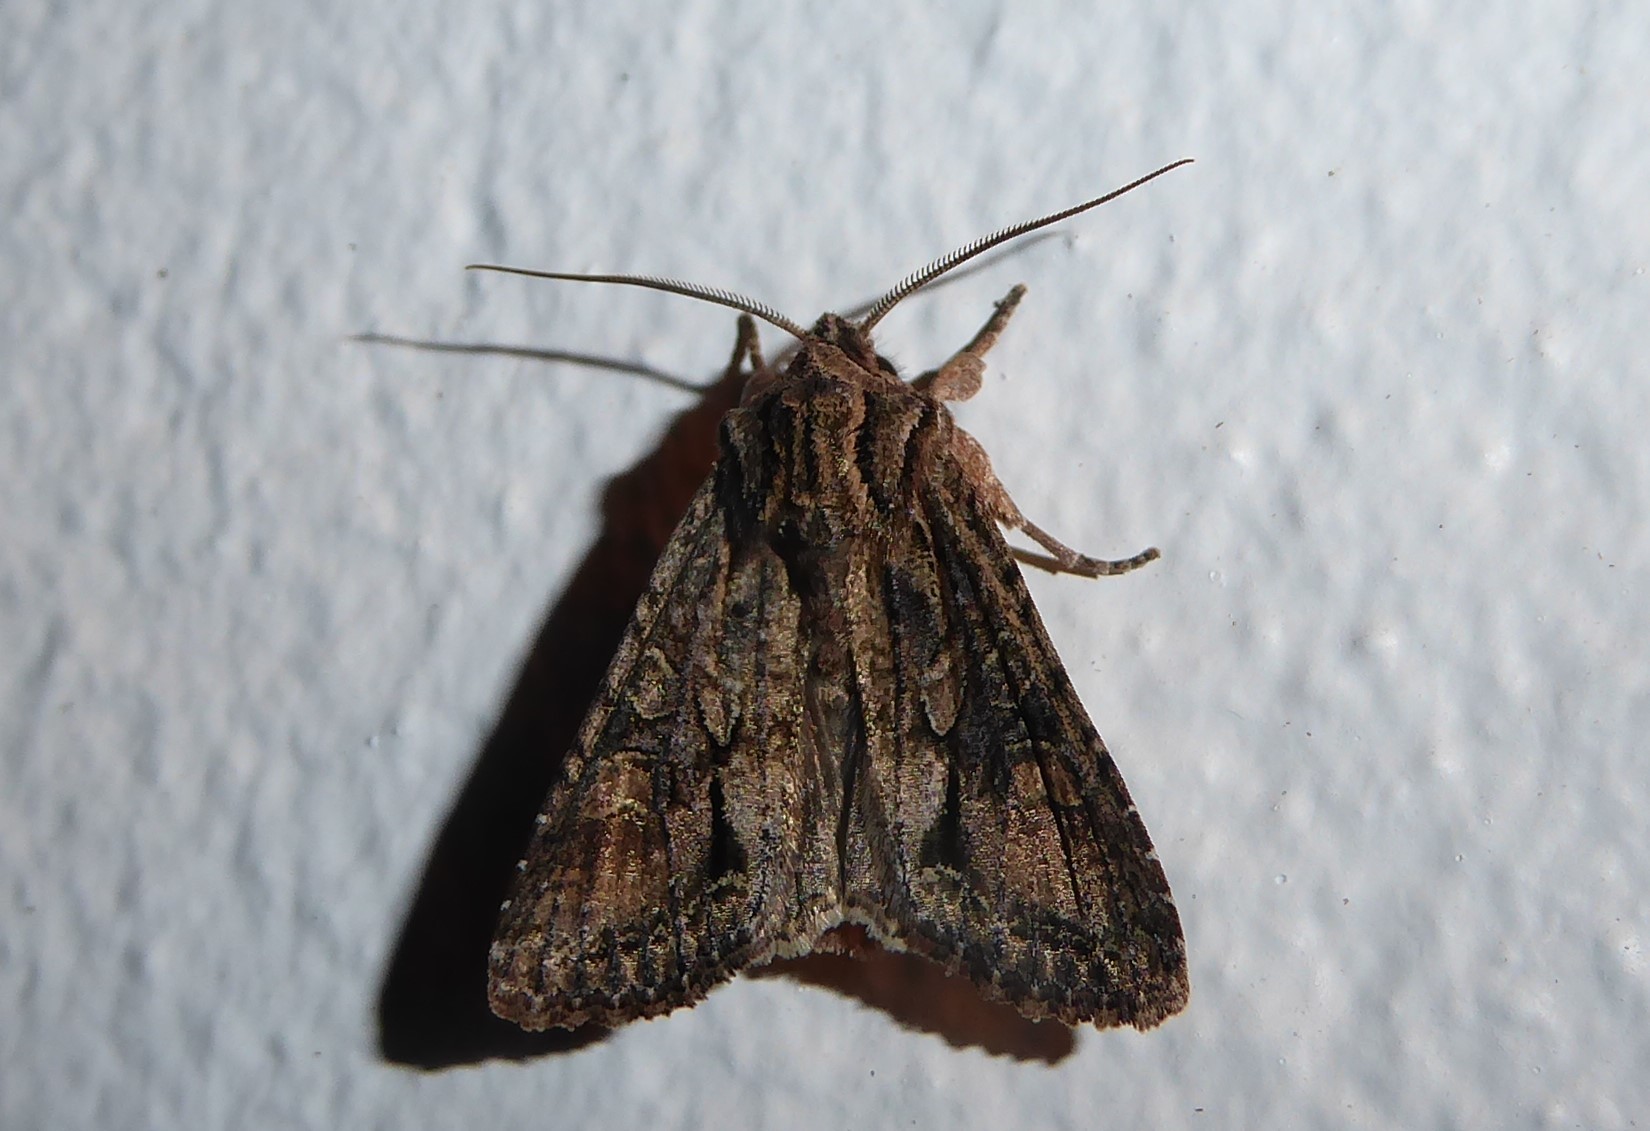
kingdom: Animalia
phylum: Arthropoda
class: Insecta
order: Lepidoptera
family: Noctuidae
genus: Ichneutica
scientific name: Ichneutica mutans
